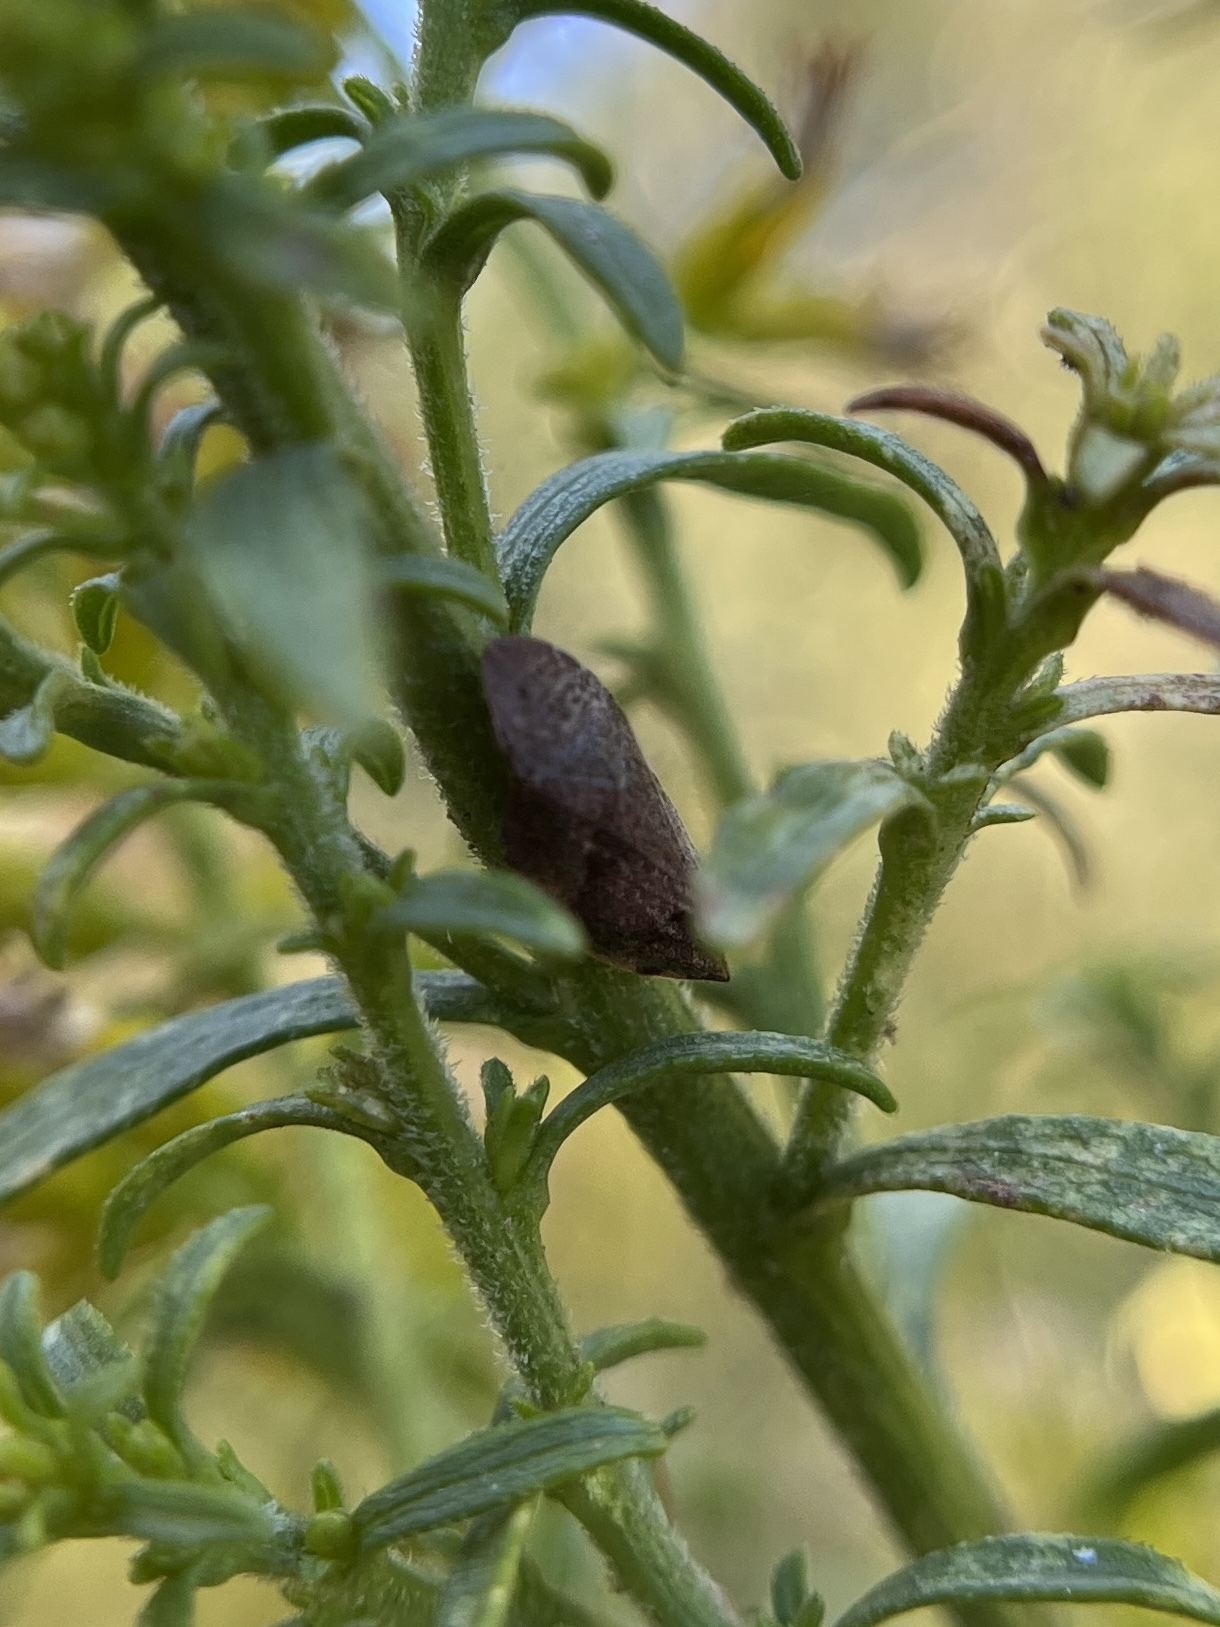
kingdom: Animalia
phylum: Arthropoda
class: Insecta
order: Hemiptera
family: Aphrophoridae
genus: Lepyronia
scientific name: Lepyronia quadrangularis
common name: Diamond-backed spittlebug
